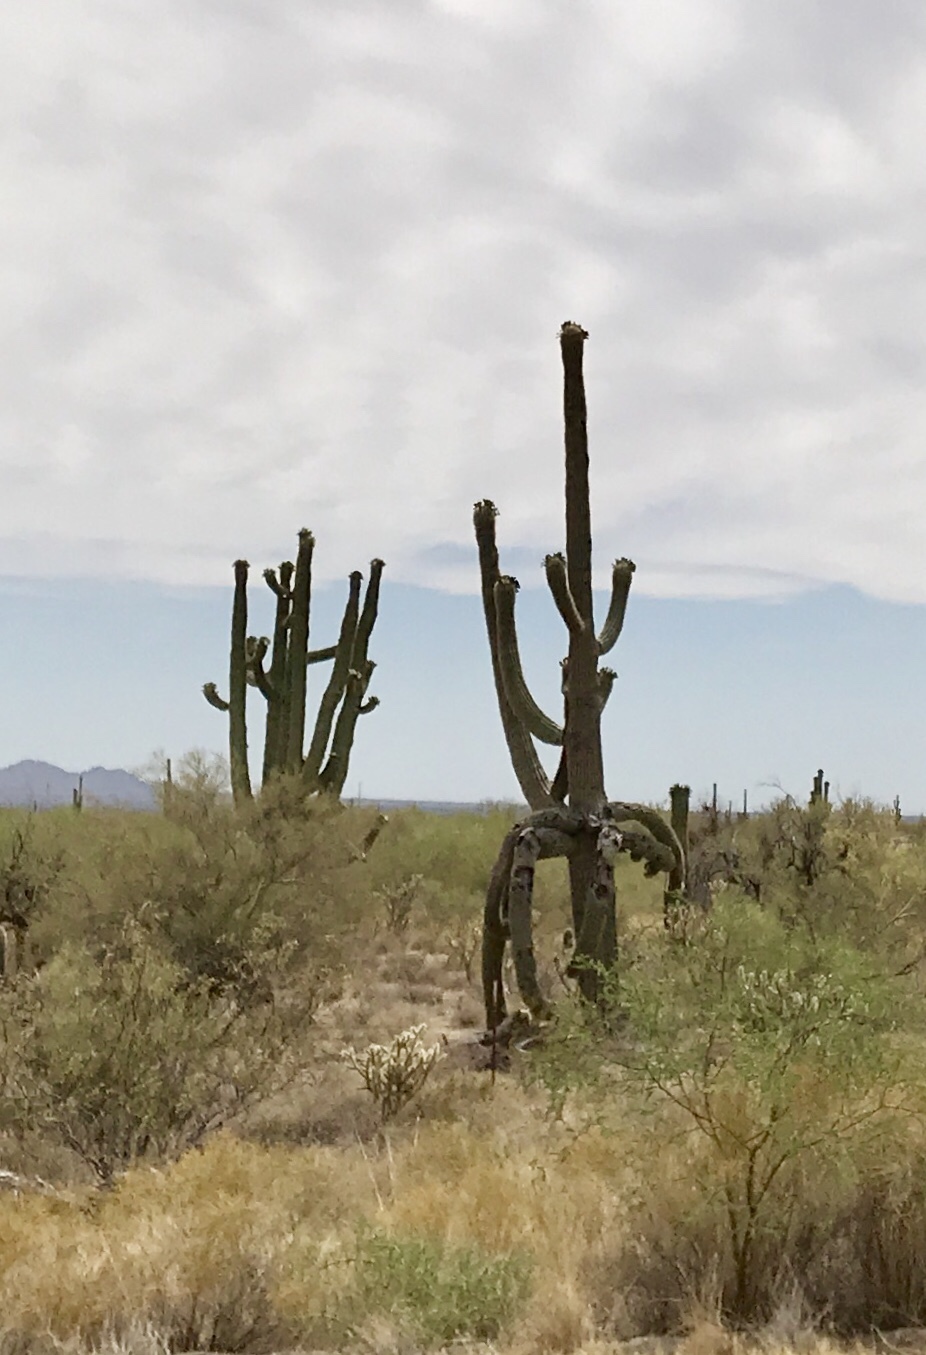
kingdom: Plantae
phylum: Tracheophyta
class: Magnoliopsida
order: Caryophyllales
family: Cactaceae
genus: Carnegiea
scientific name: Carnegiea gigantea
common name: Saguaro
